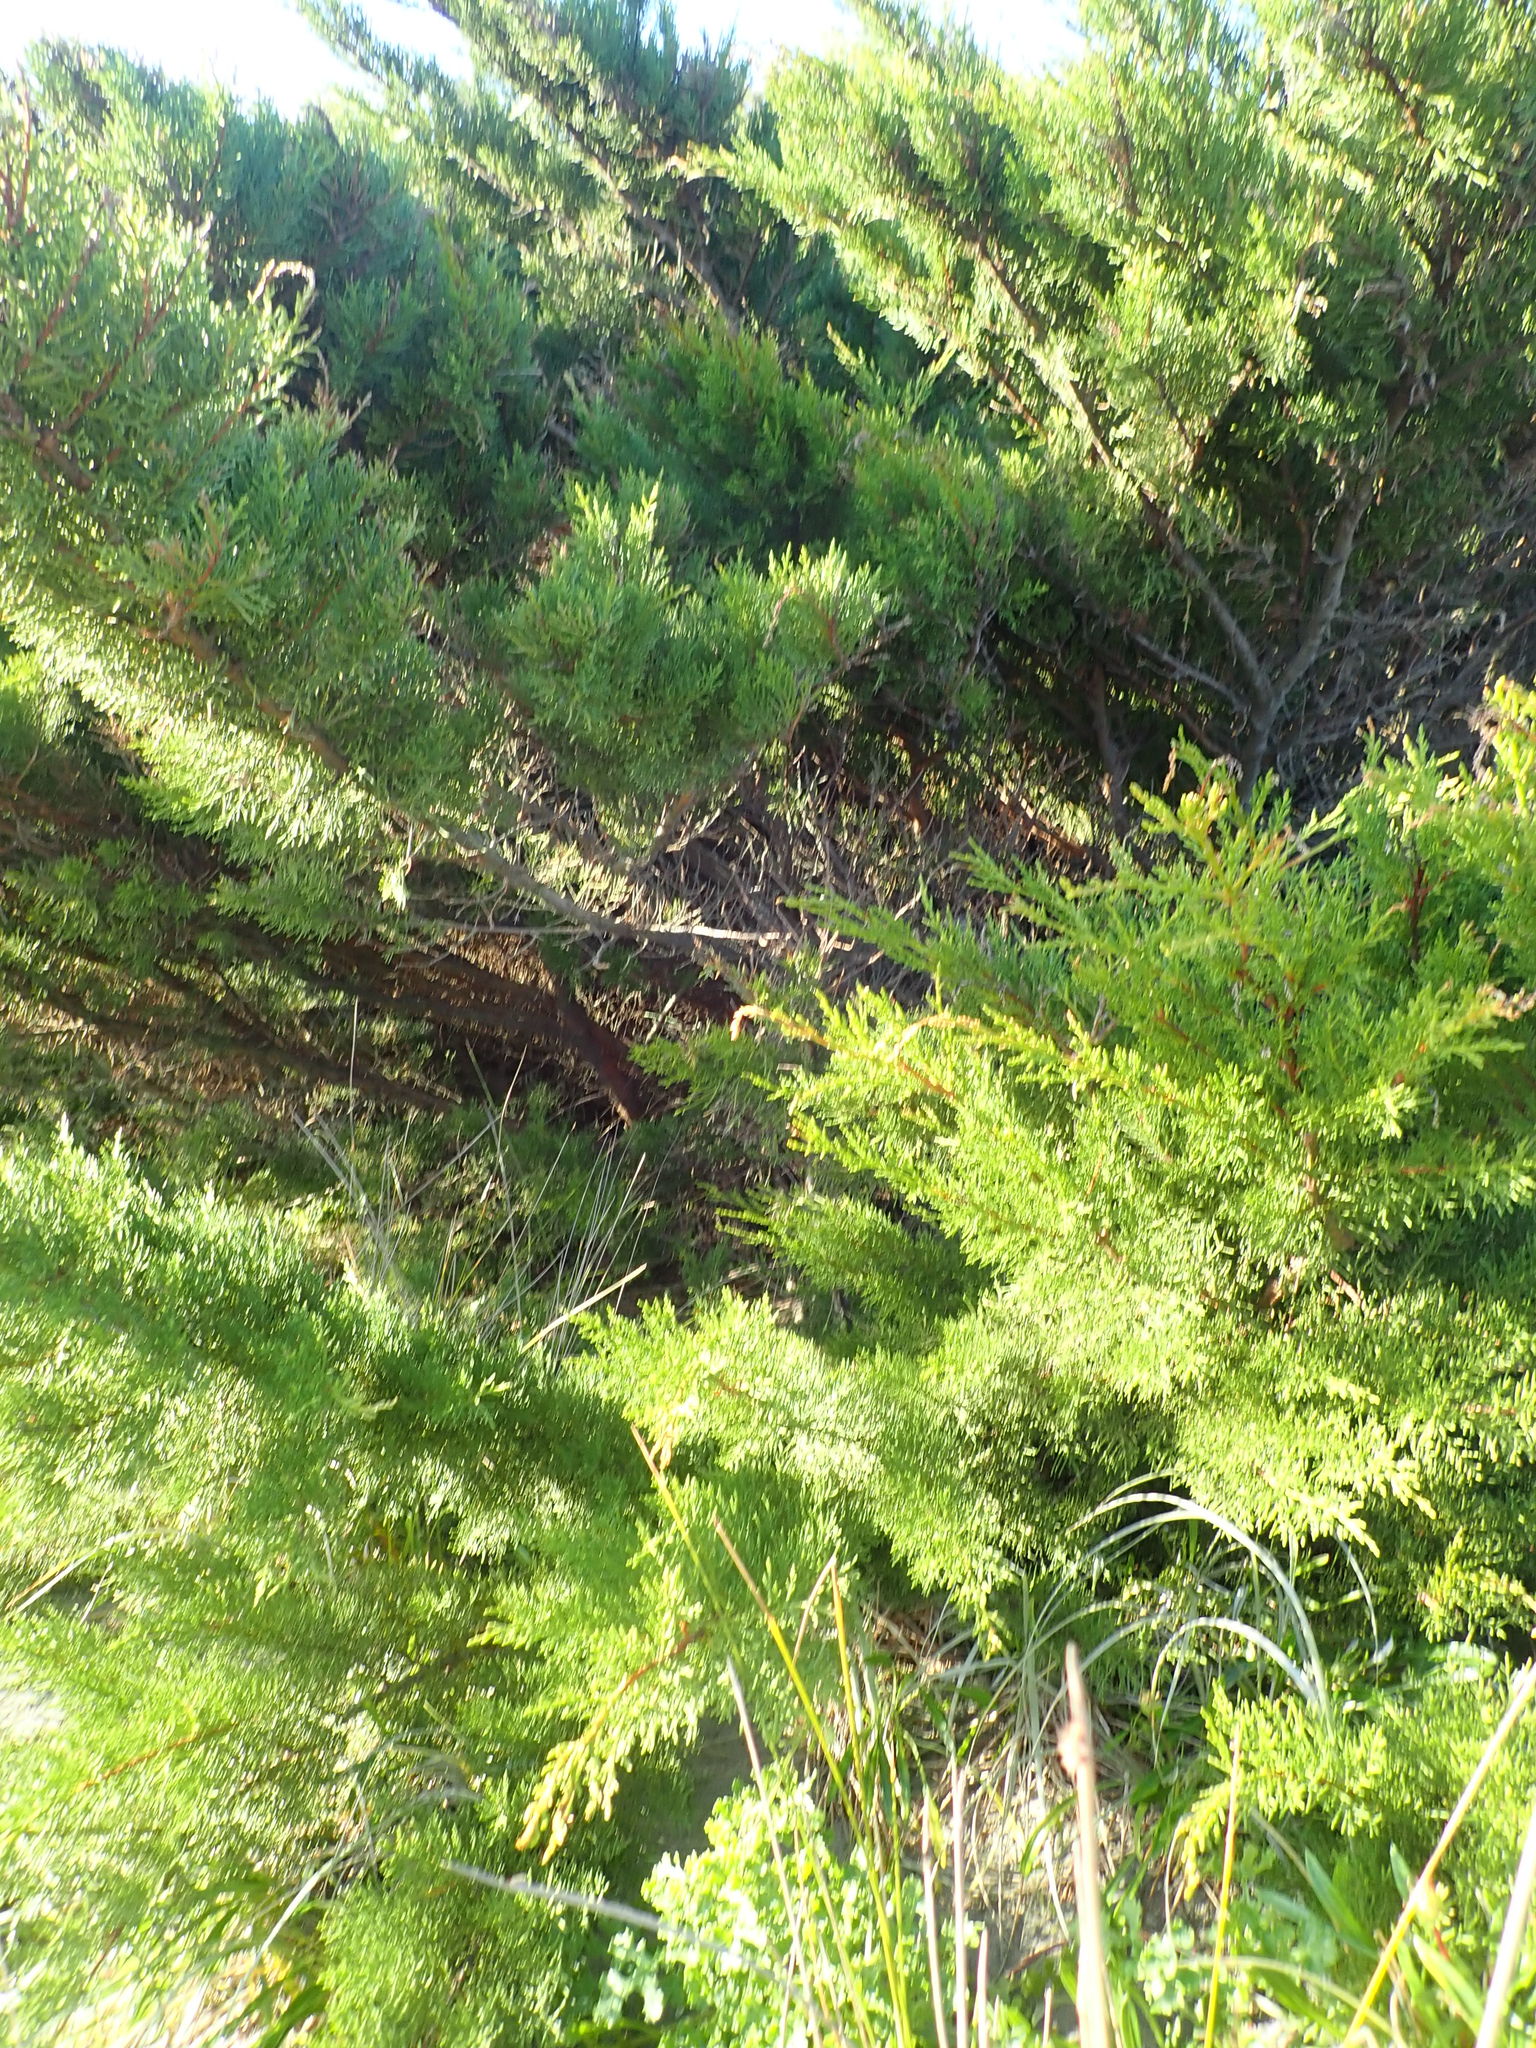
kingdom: Plantae
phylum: Tracheophyta
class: Pinopsida
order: Pinales
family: Cupressaceae
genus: Cupressus
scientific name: Cupressus macrocarpa
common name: Monterey cypress
